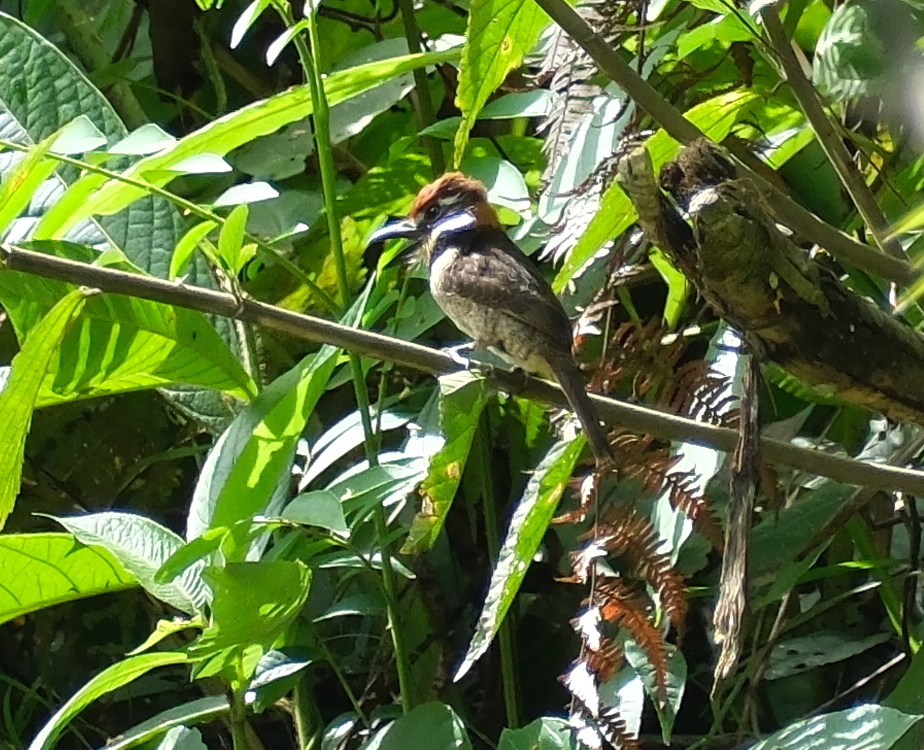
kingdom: Animalia
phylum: Chordata
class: Aves
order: Piciformes
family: Bucconidae
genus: Bucco
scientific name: Bucco macrodactylus
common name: Chestnut-capped puffbird
